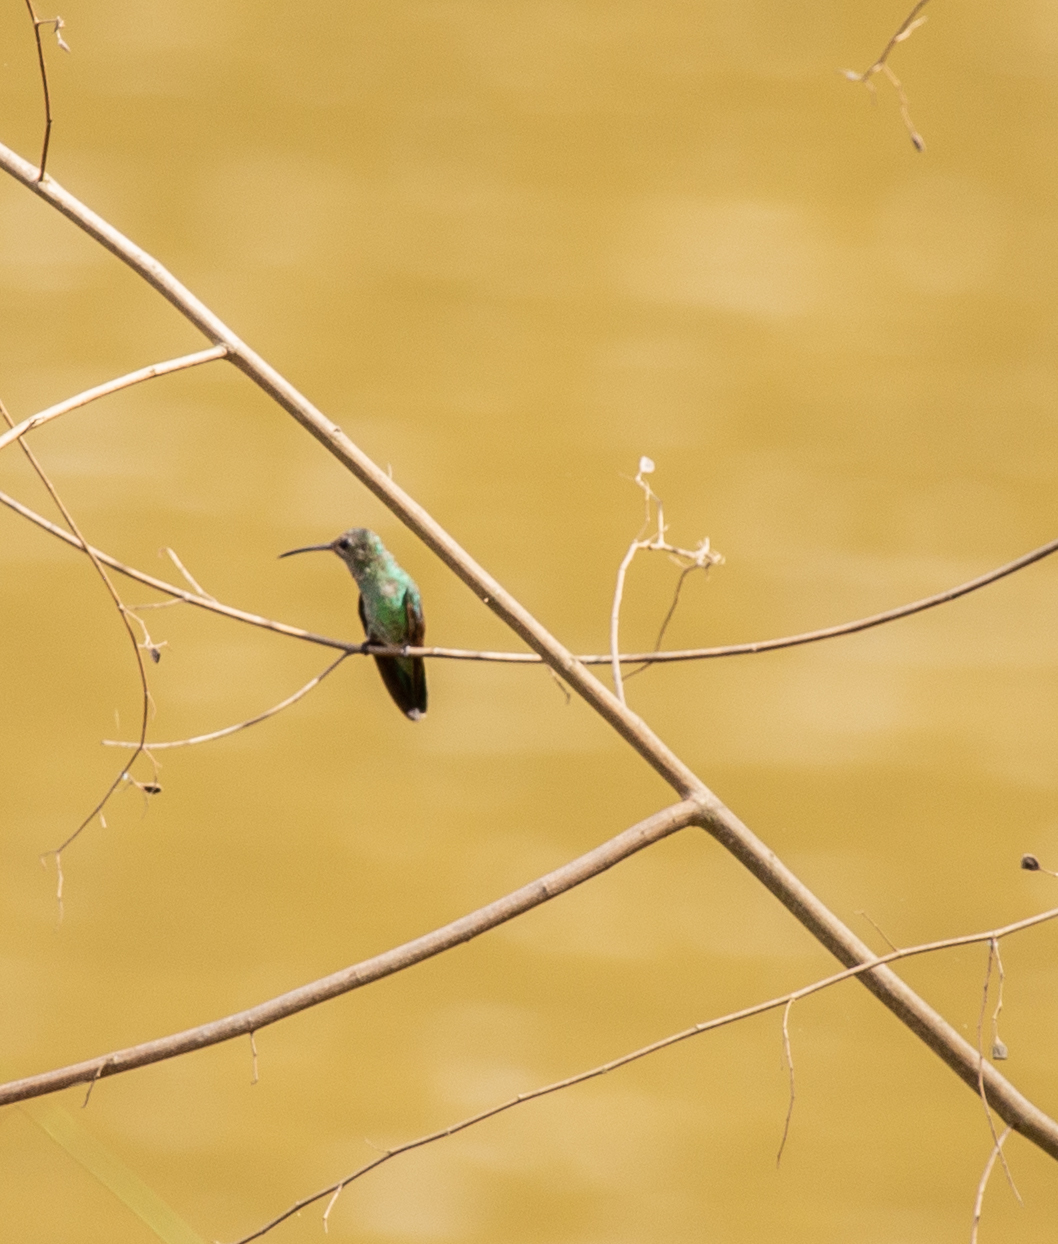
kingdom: Animalia
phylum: Chordata
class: Aves
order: Apodiformes
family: Trochilidae
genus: Polytmus
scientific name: Polytmus theresiae
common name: Green-tailed goldenthroat
